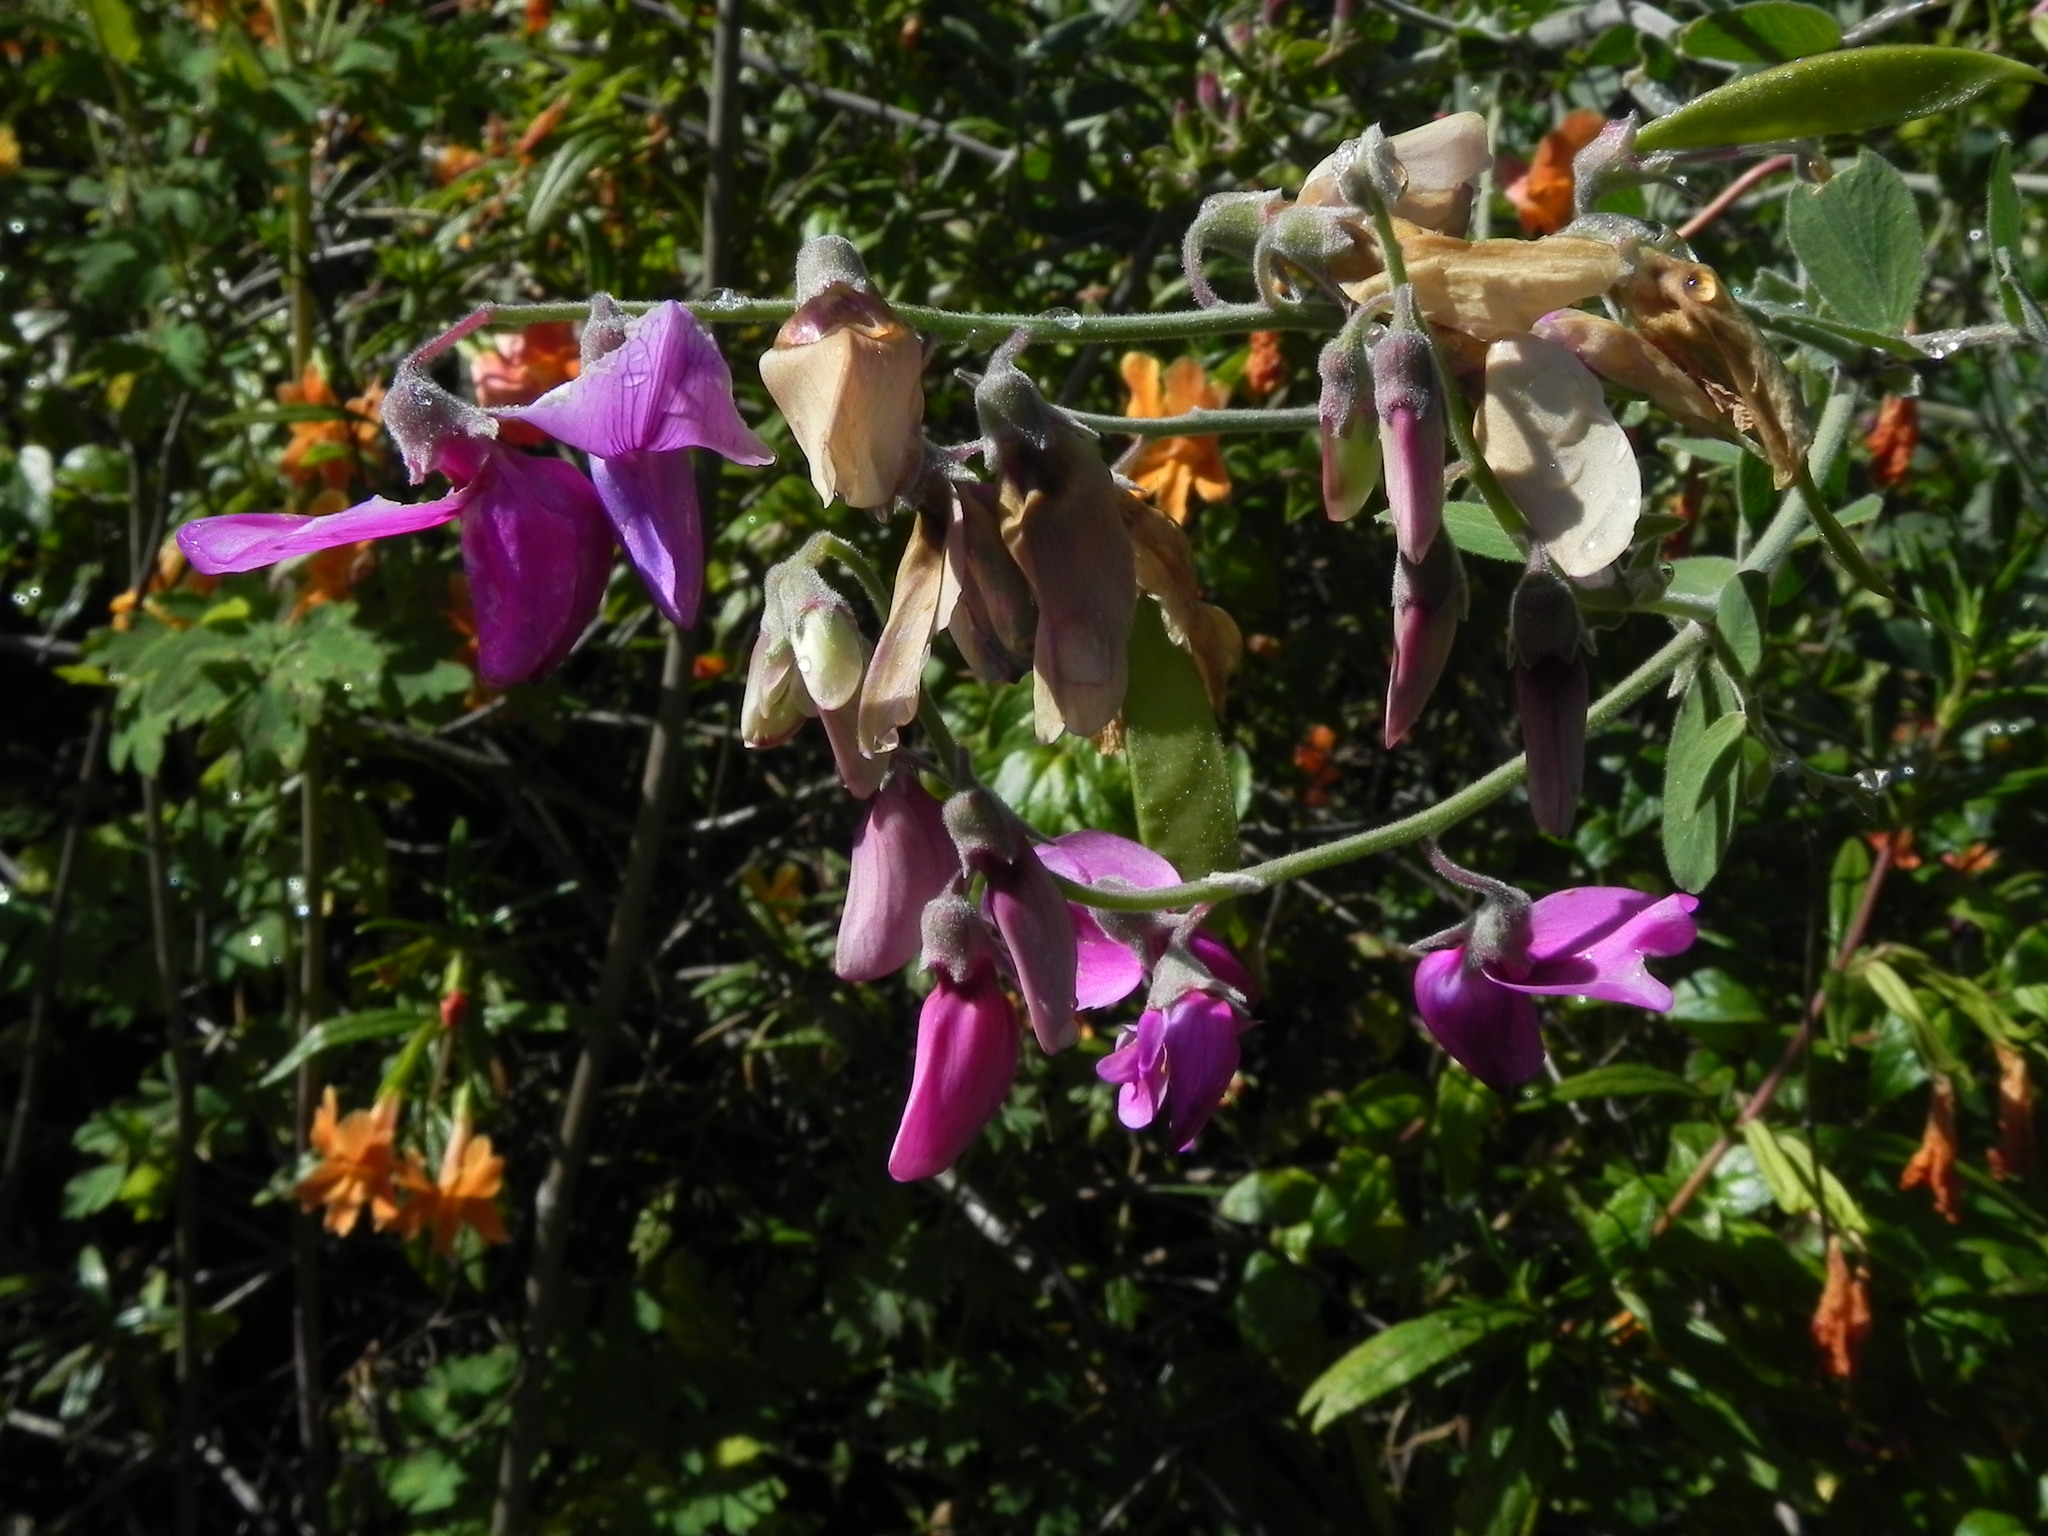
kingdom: Plantae
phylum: Tracheophyta
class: Magnoliopsida
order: Fabales
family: Fabaceae
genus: Lathyrus
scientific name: Lathyrus vestitus
